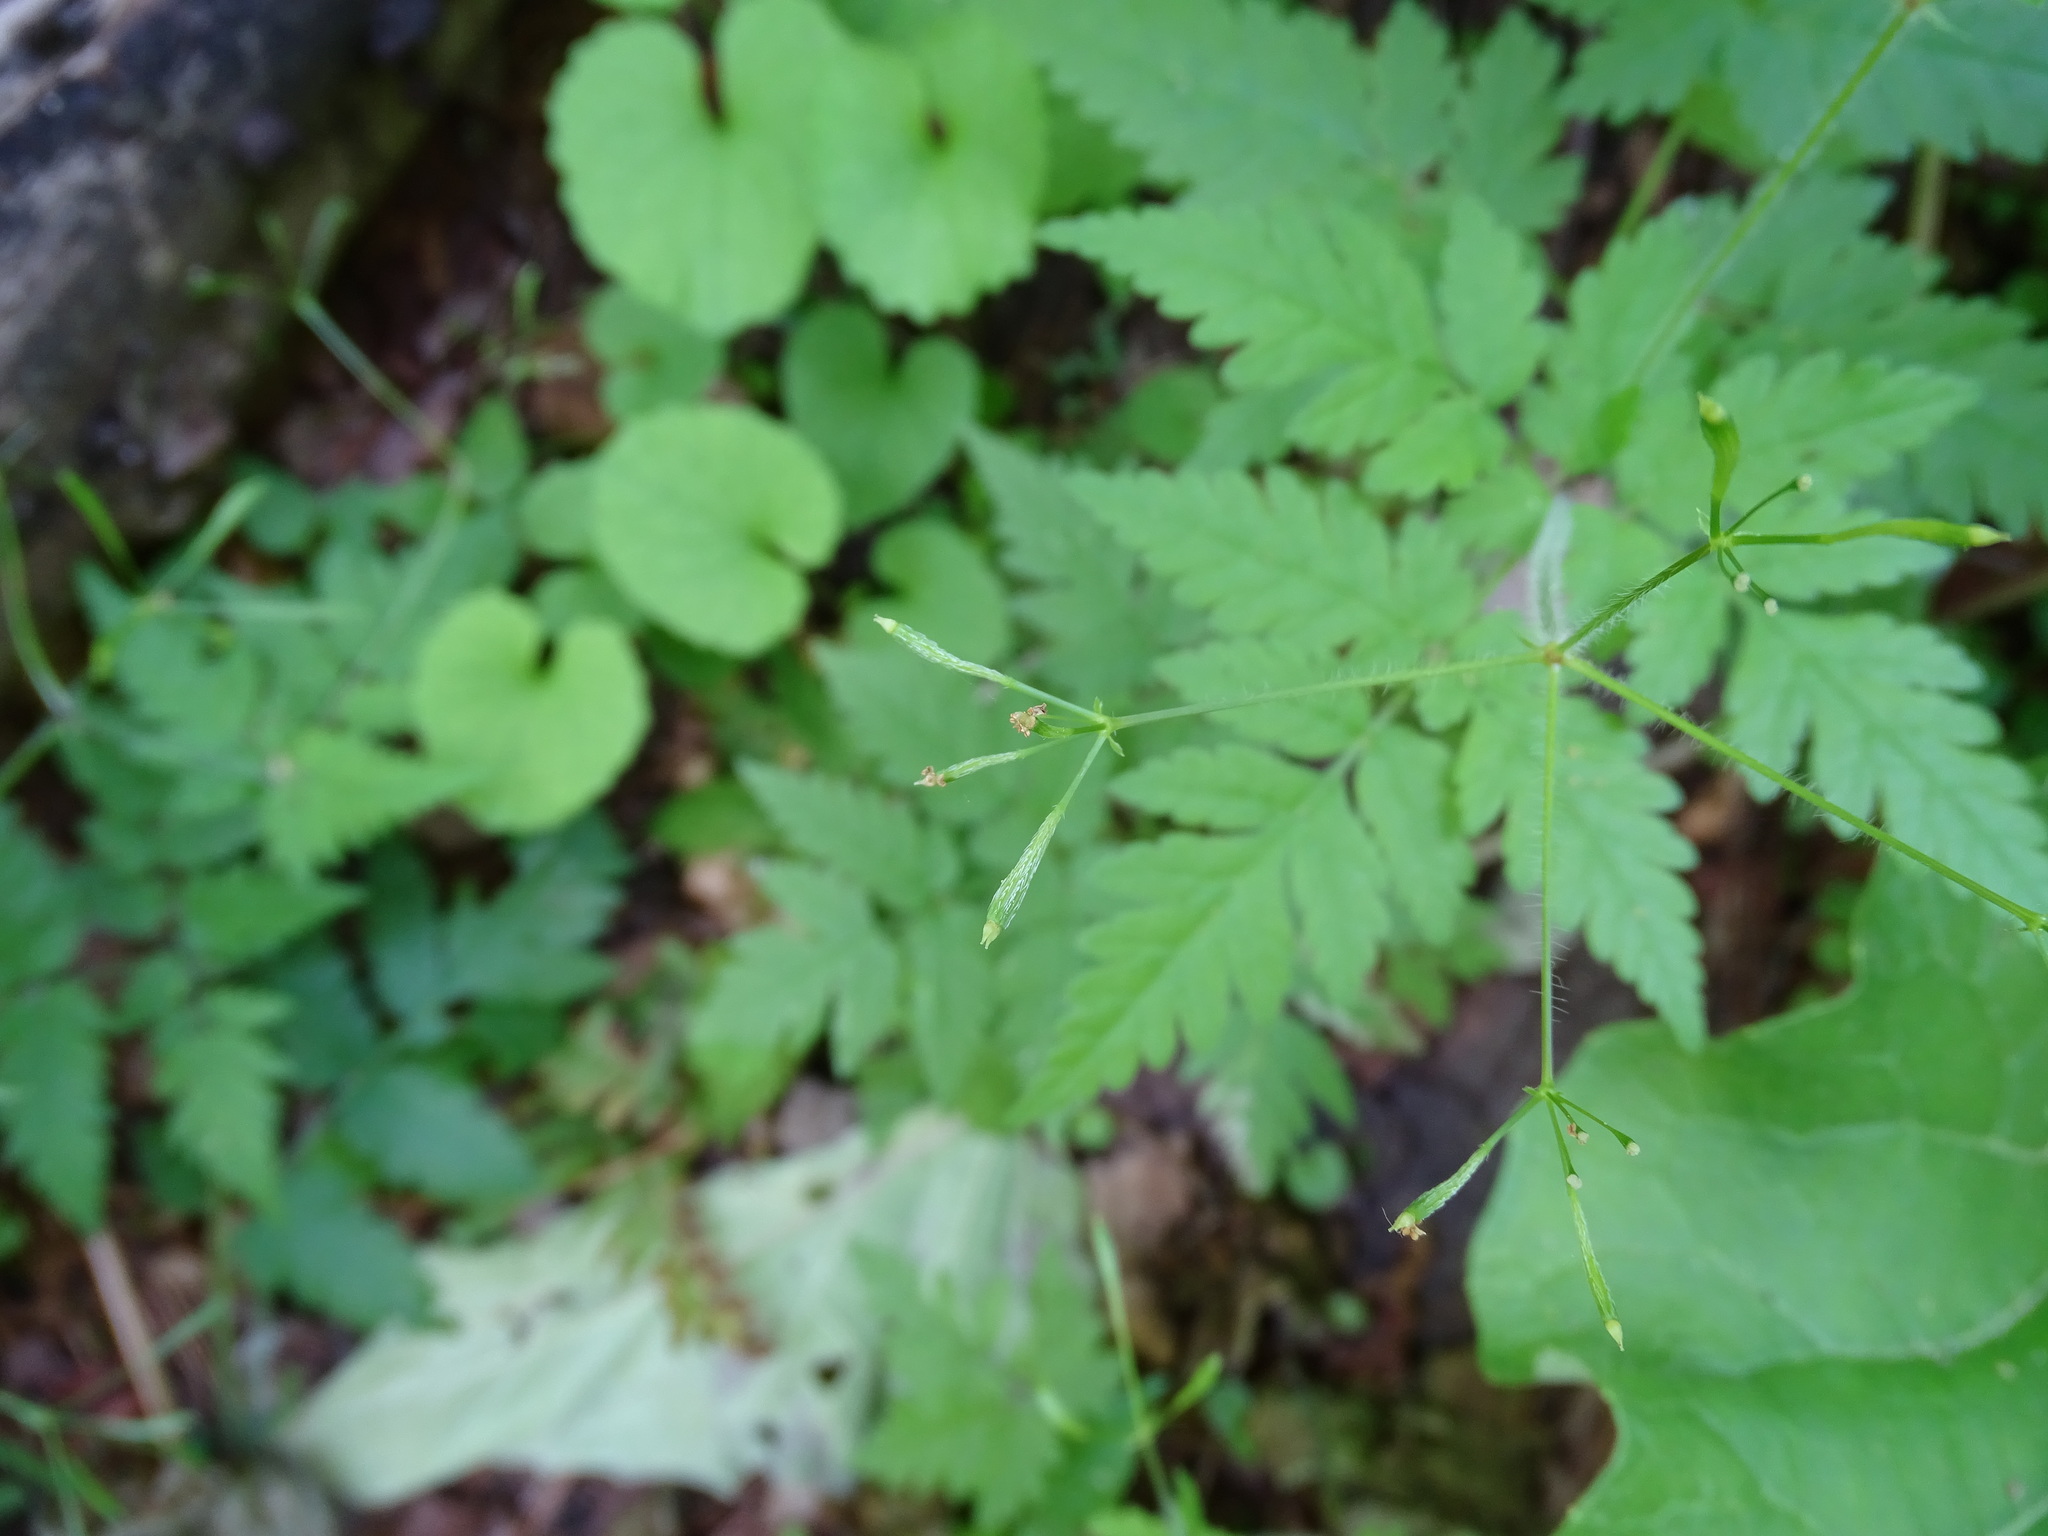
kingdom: Plantae
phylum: Tracheophyta
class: Magnoliopsida
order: Apiales
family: Apiaceae
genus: Osmorhiza
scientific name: Osmorhiza claytonii
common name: Hairy sweet cicely
